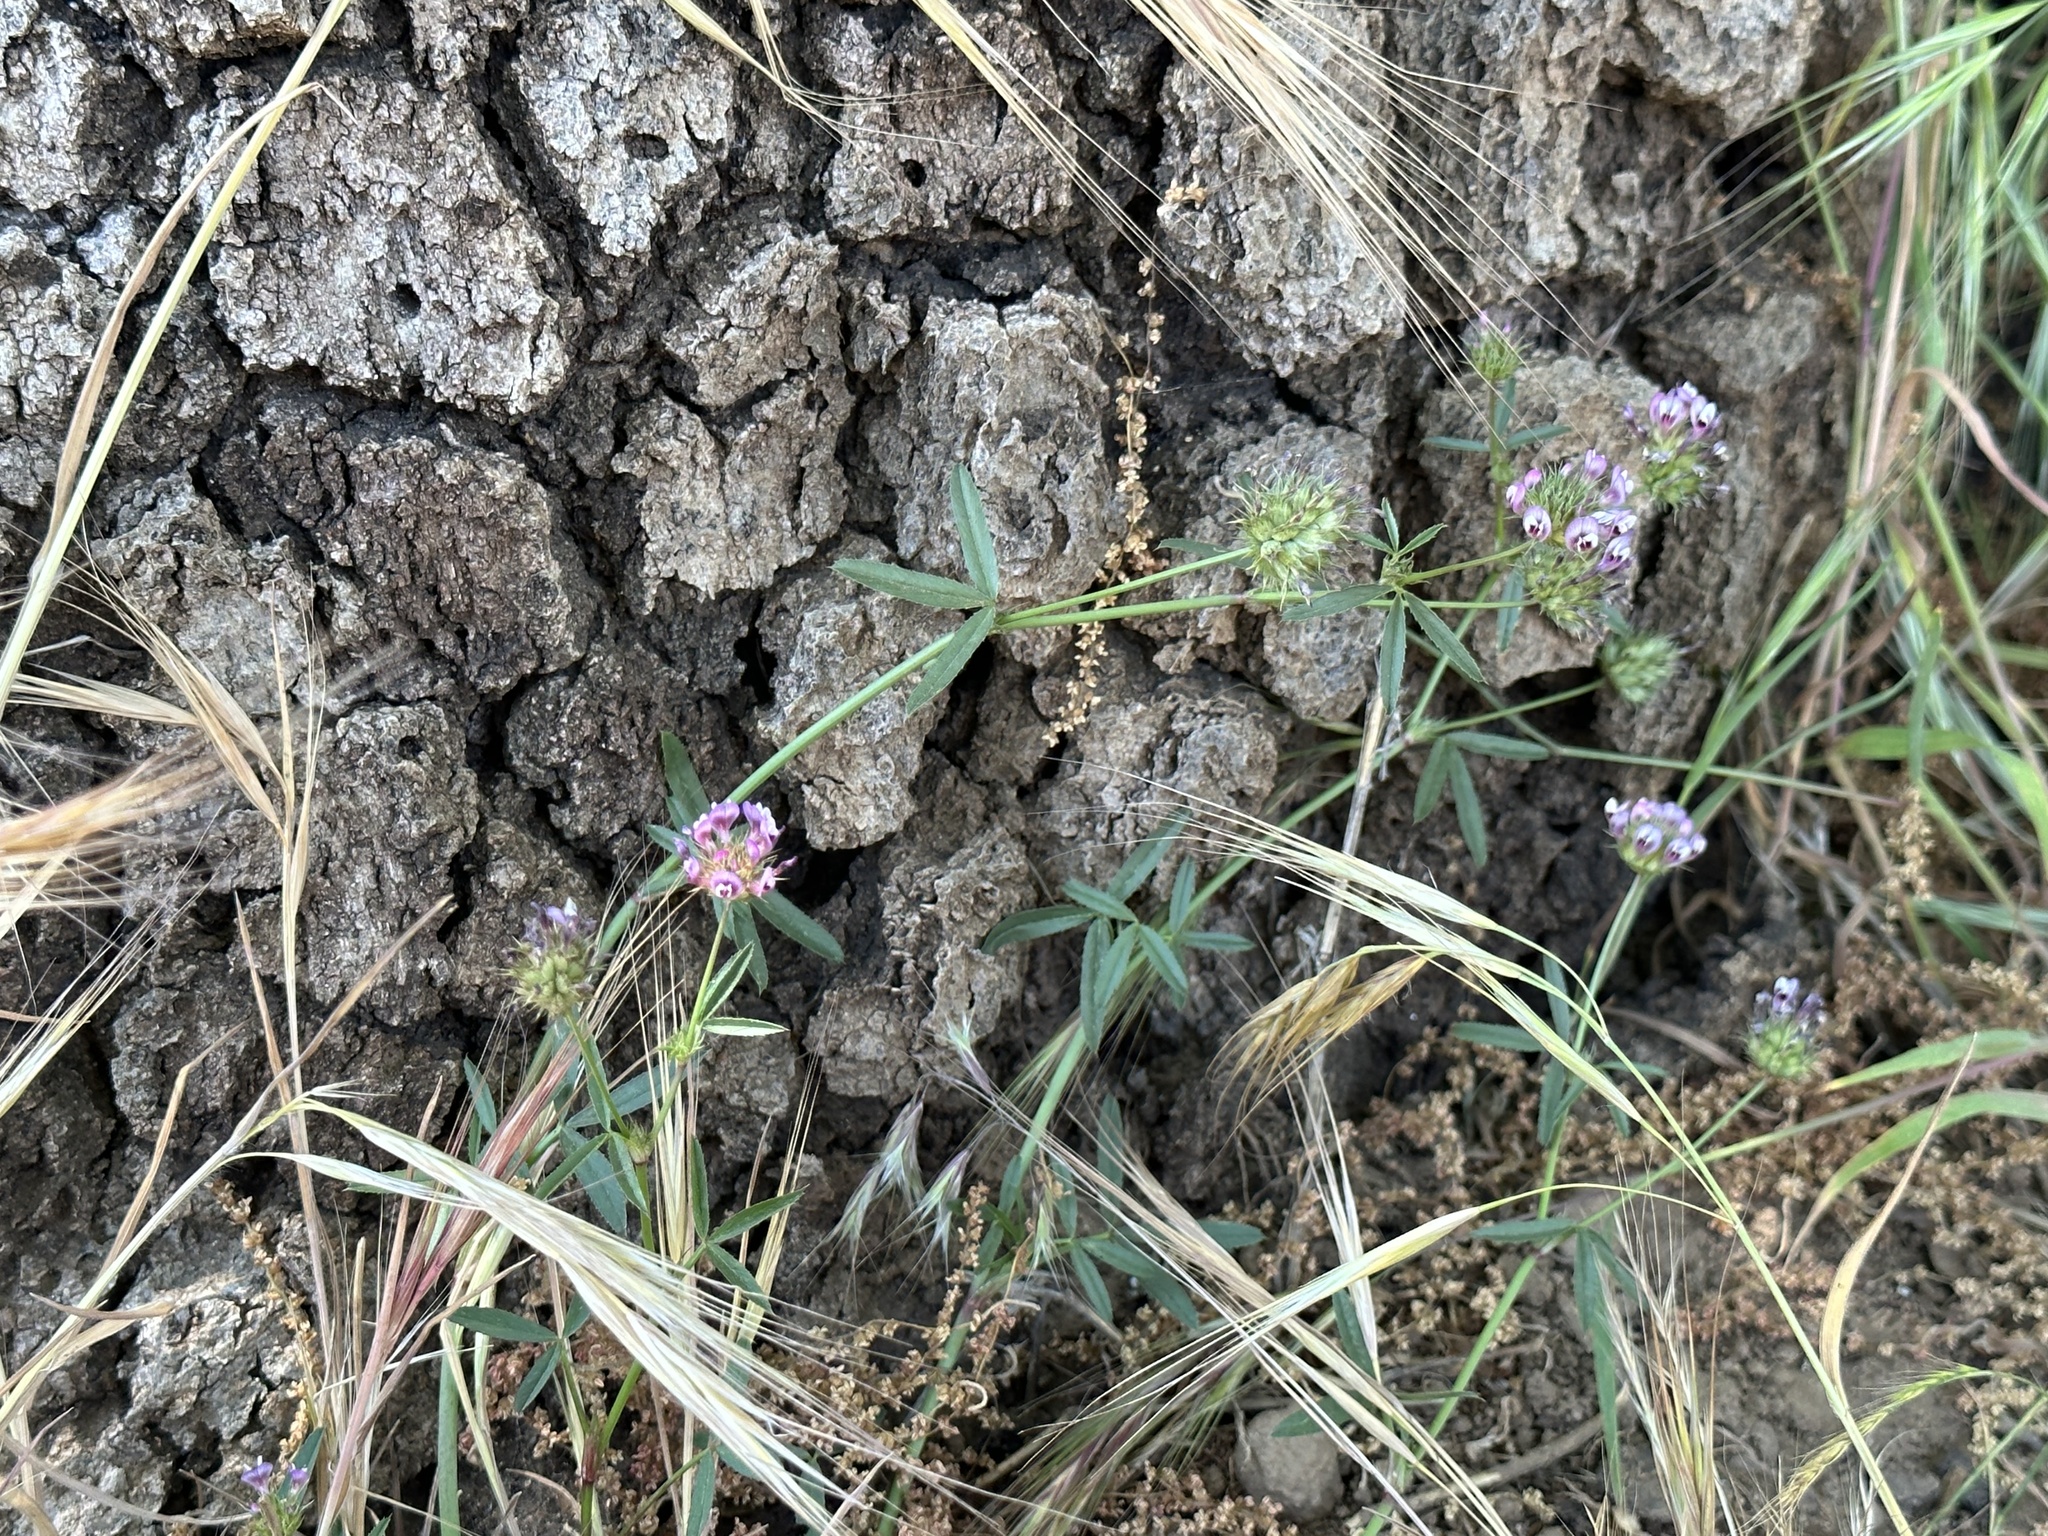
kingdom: Plantae
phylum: Tracheophyta
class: Magnoliopsida
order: Fabales
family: Fabaceae
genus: Trifolium
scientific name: Trifolium willdenovii
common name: Tomcat clover
